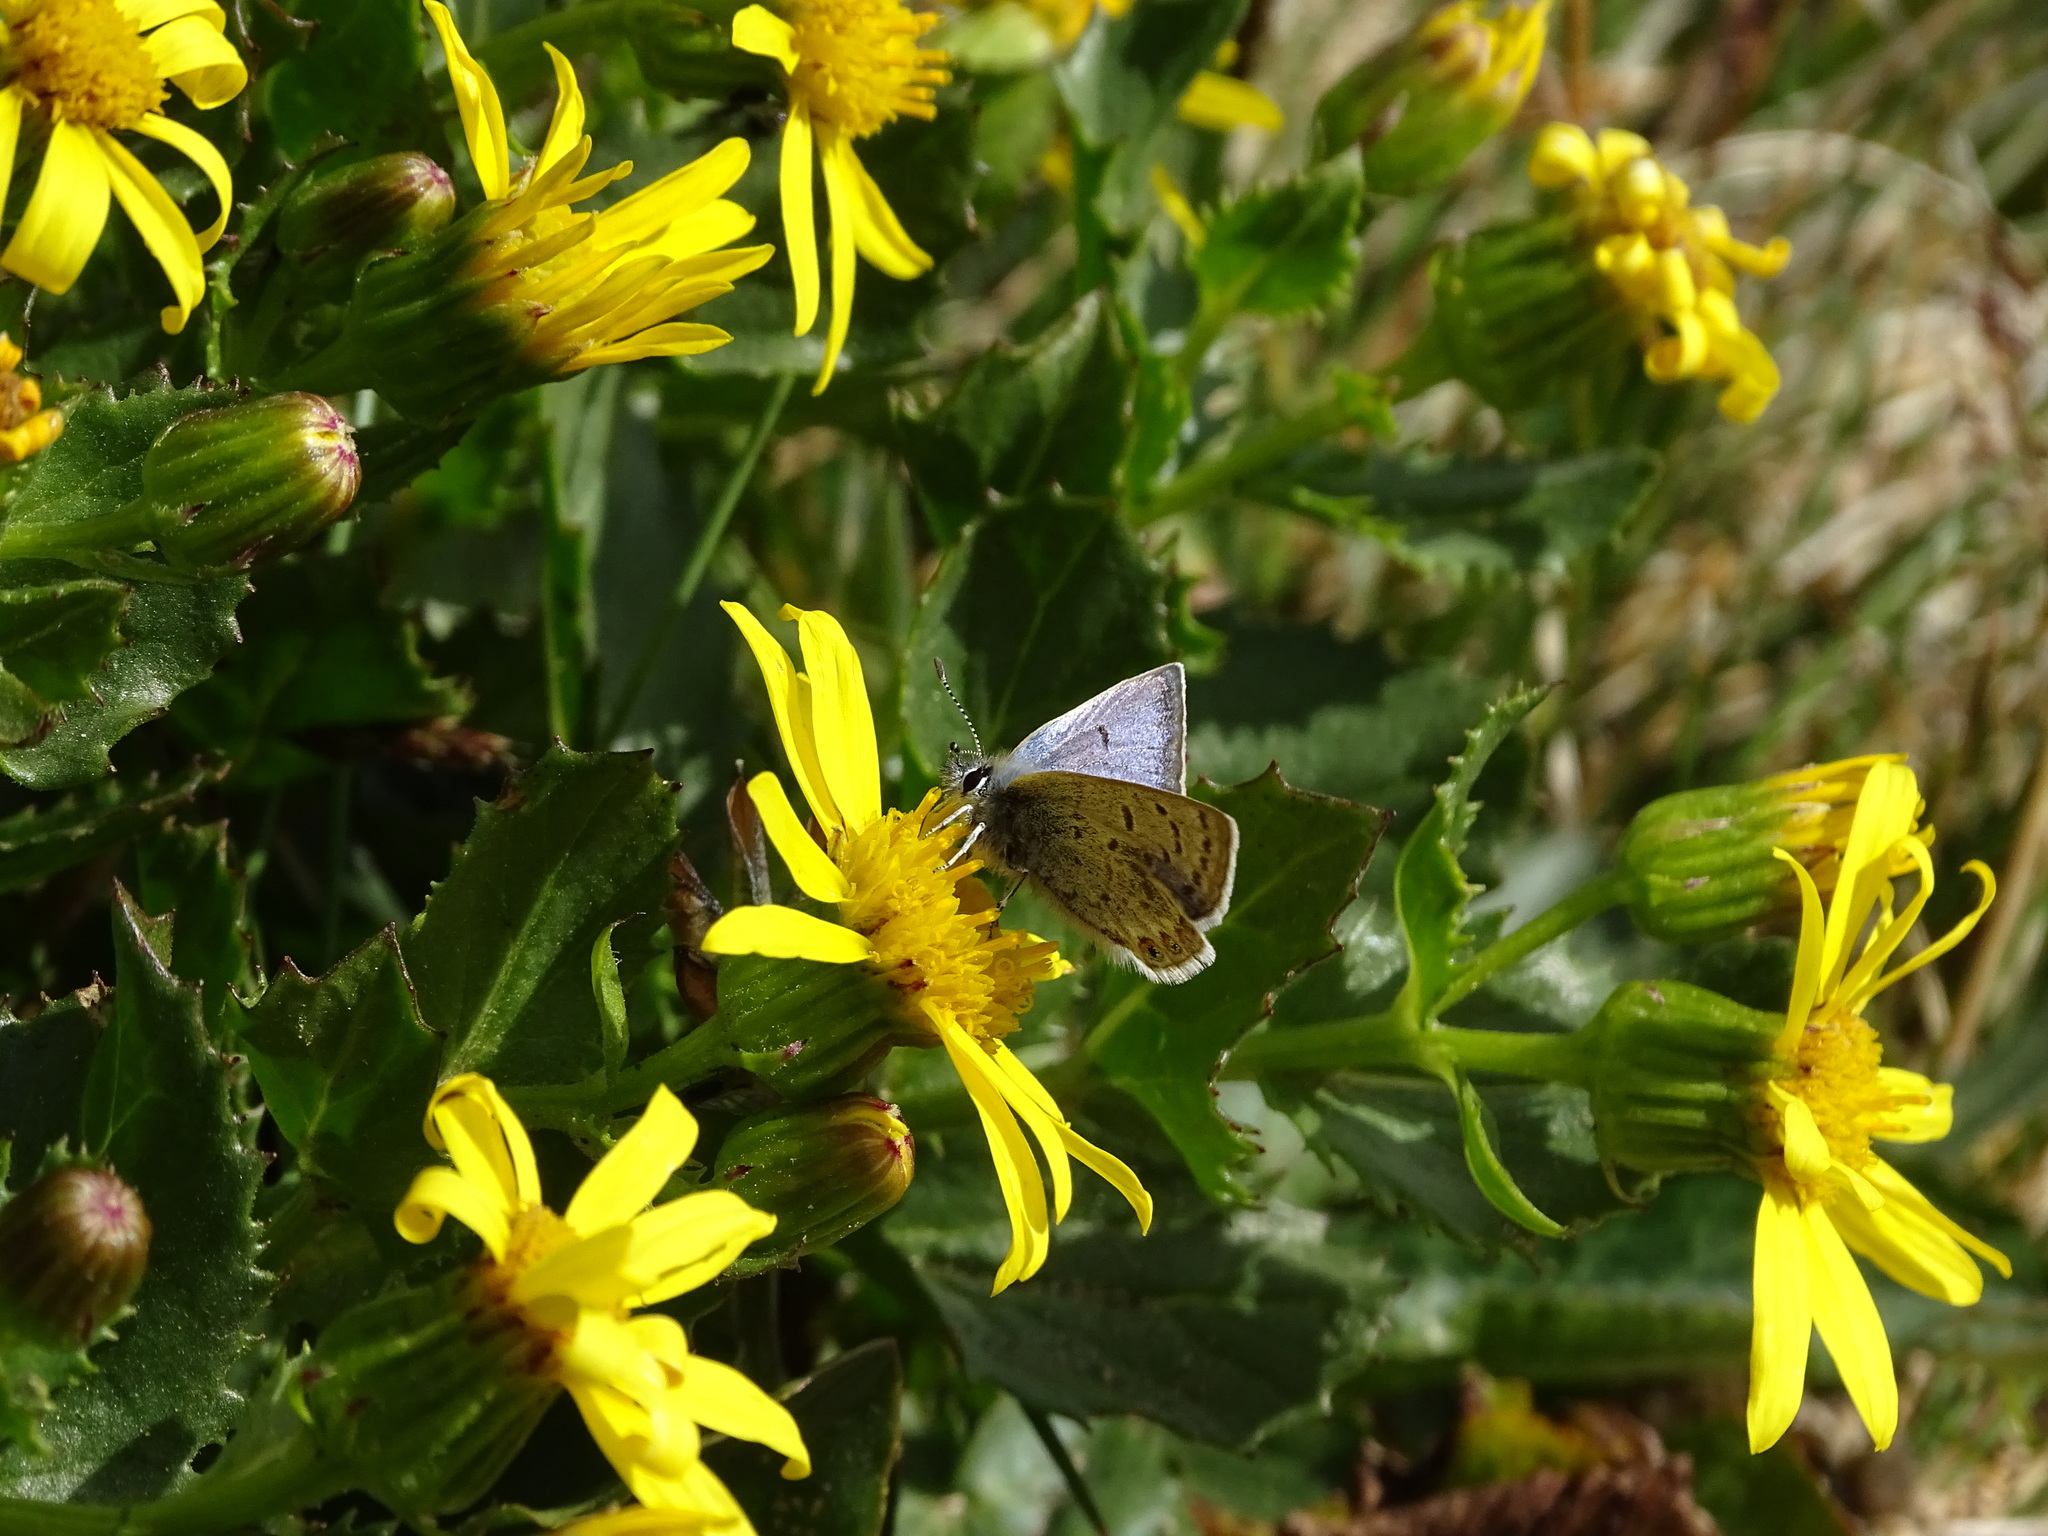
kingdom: Animalia
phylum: Arthropoda
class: Insecta
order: Lepidoptera
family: Lycaenidae
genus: Icaricia
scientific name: Icaricia shasta
